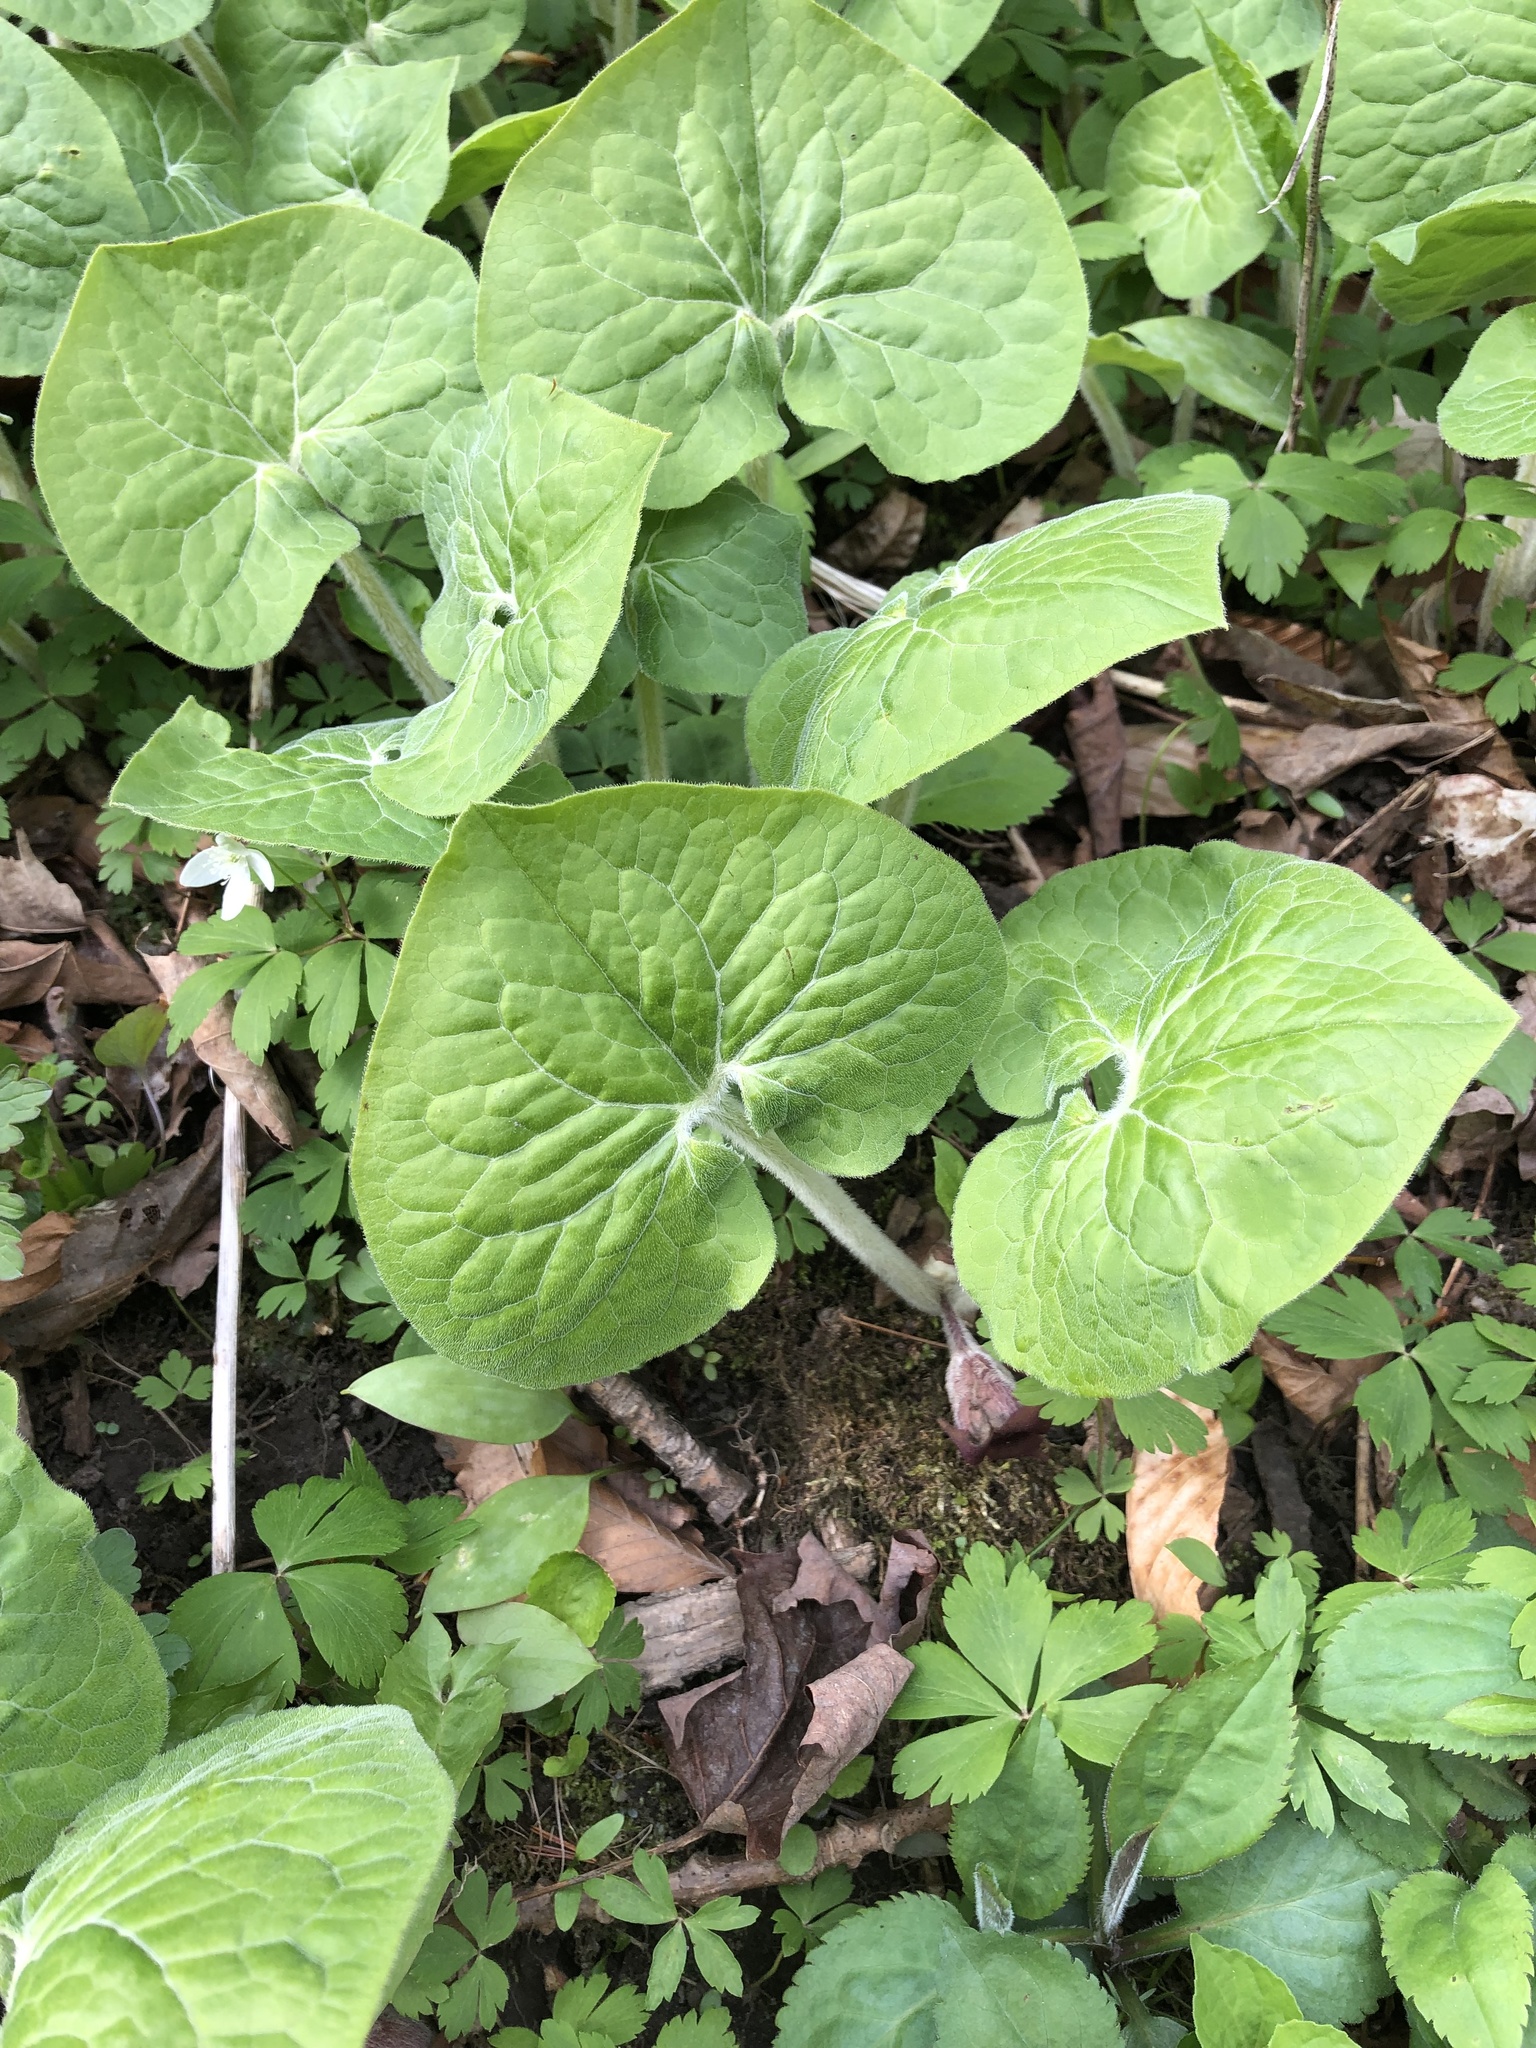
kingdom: Plantae
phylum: Tracheophyta
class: Magnoliopsida
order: Piperales
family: Aristolochiaceae
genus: Asarum
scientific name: Asarum canadense
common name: Wild ginger
